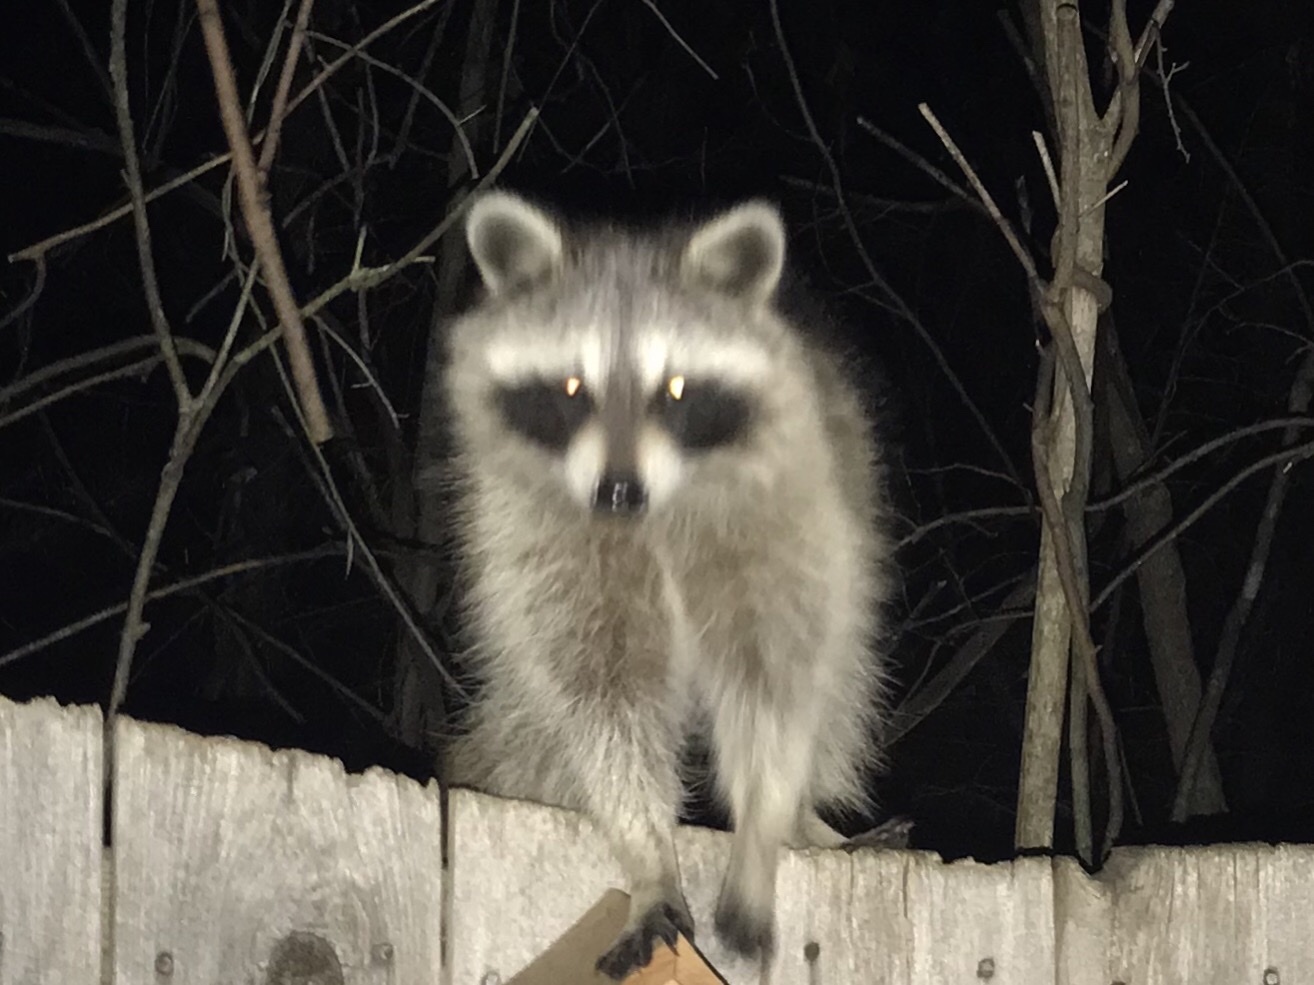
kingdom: Animalia
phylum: Chordata
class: Mammalia
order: Carnivora
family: Procyonidae
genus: Procyon
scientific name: Procyon lotor
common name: Raccoon
